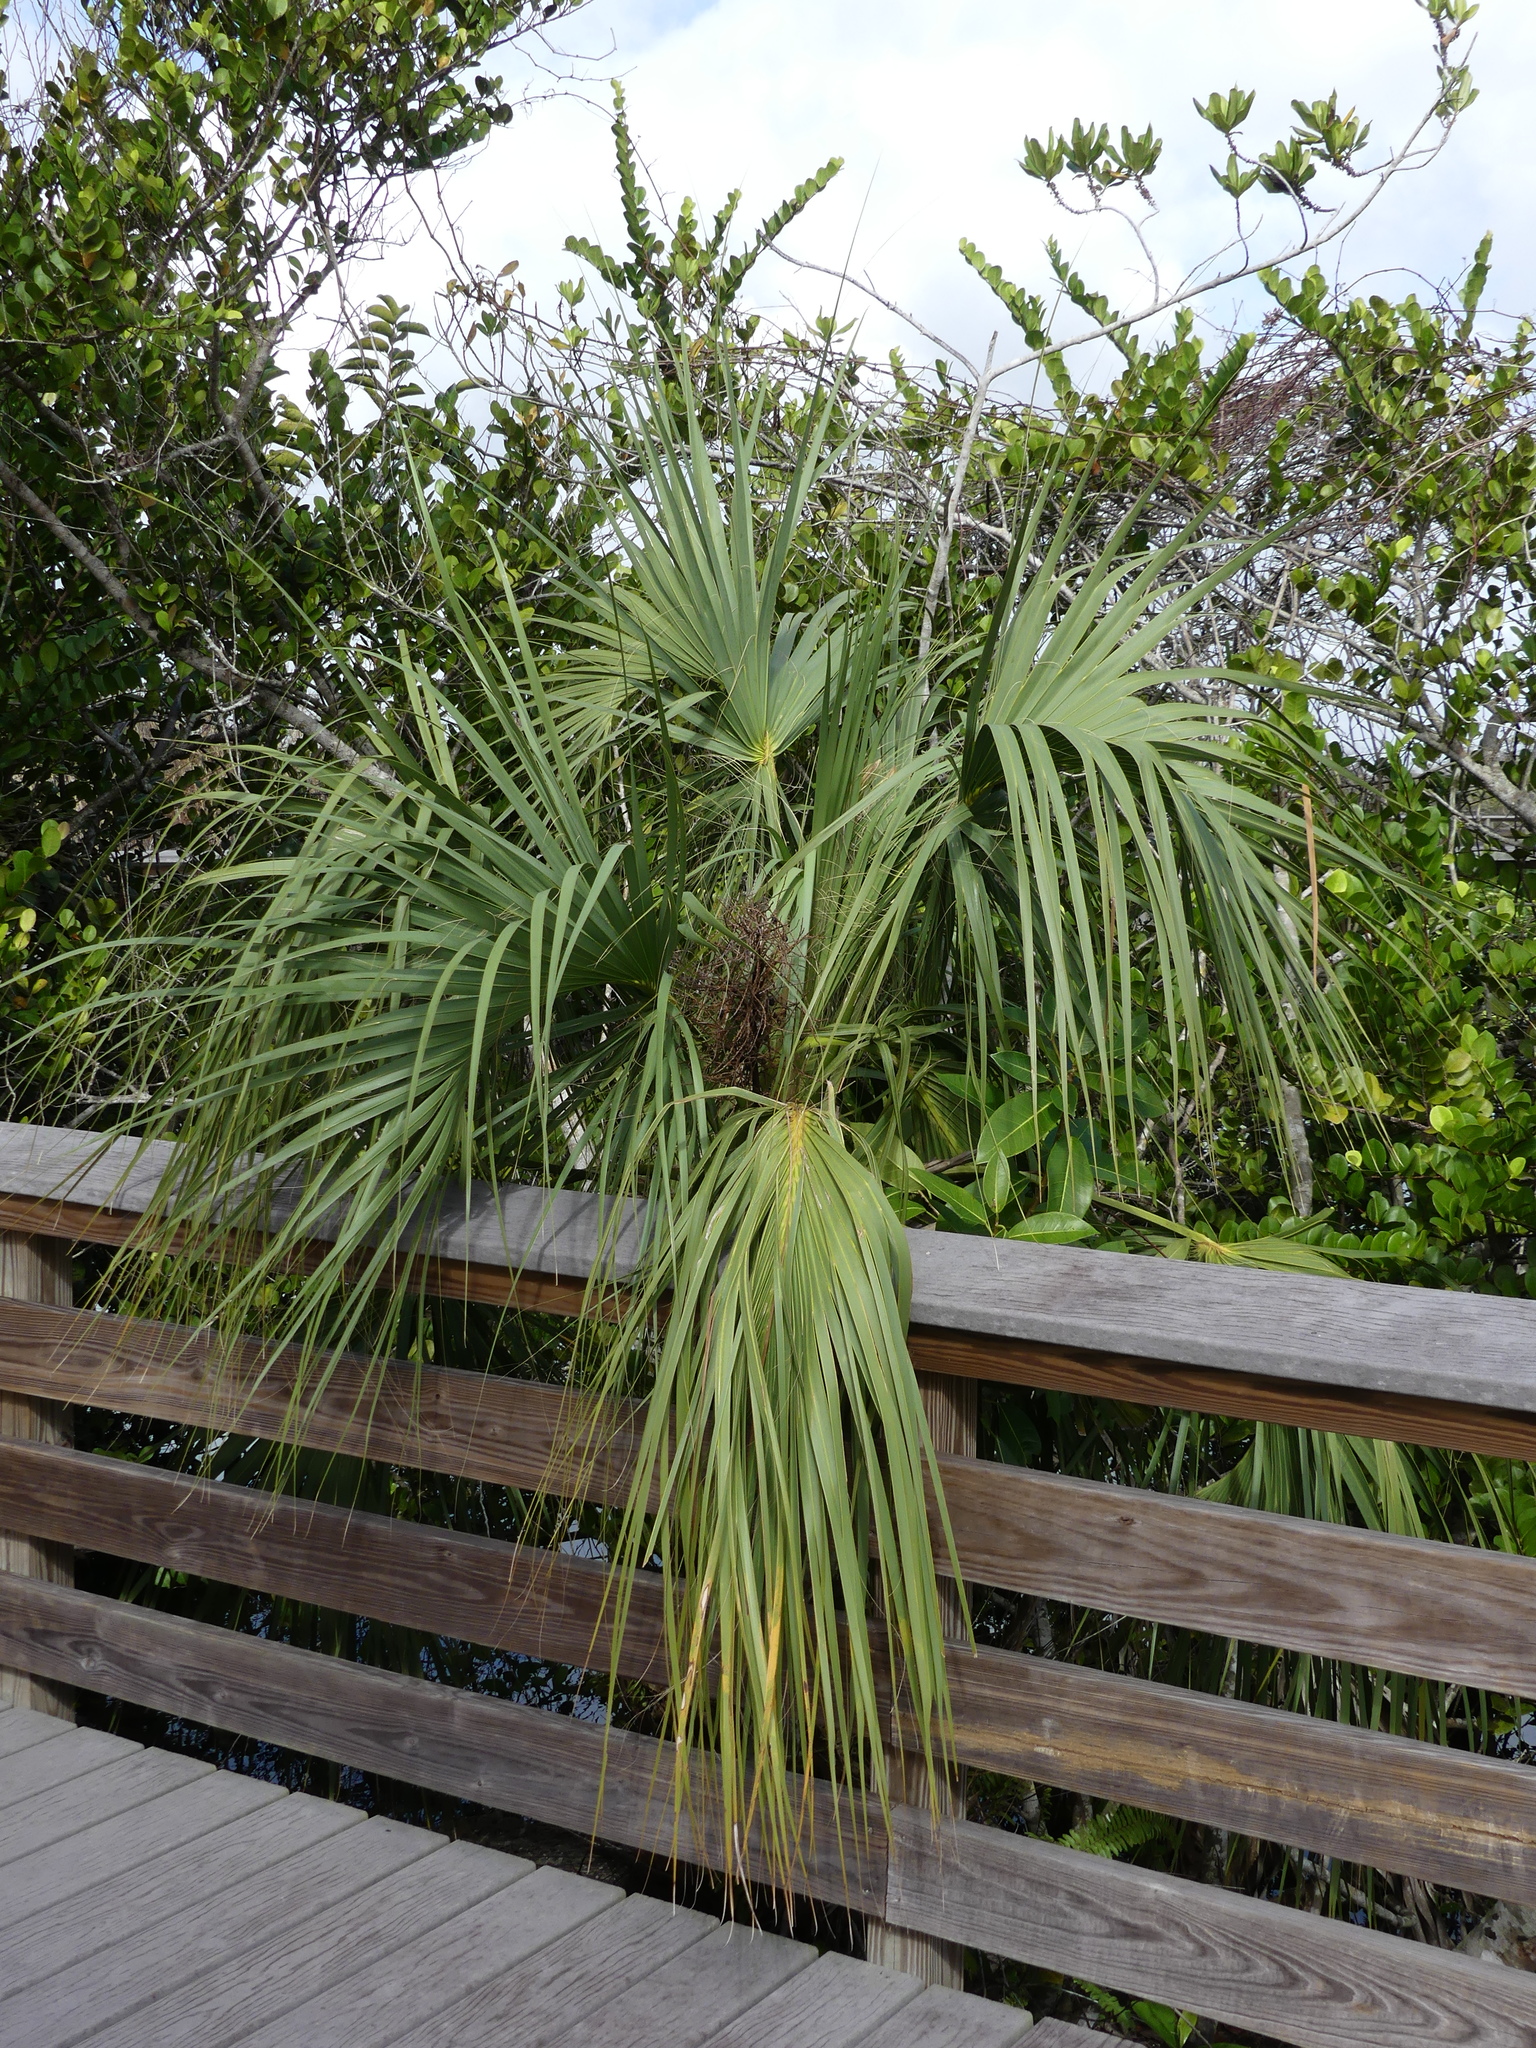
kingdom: Plantae
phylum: Tracheophyta
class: Liliopsida
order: Arecales
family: Arecaceae
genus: Sabal
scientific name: Sabal palmetto
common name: Blue palmetto
